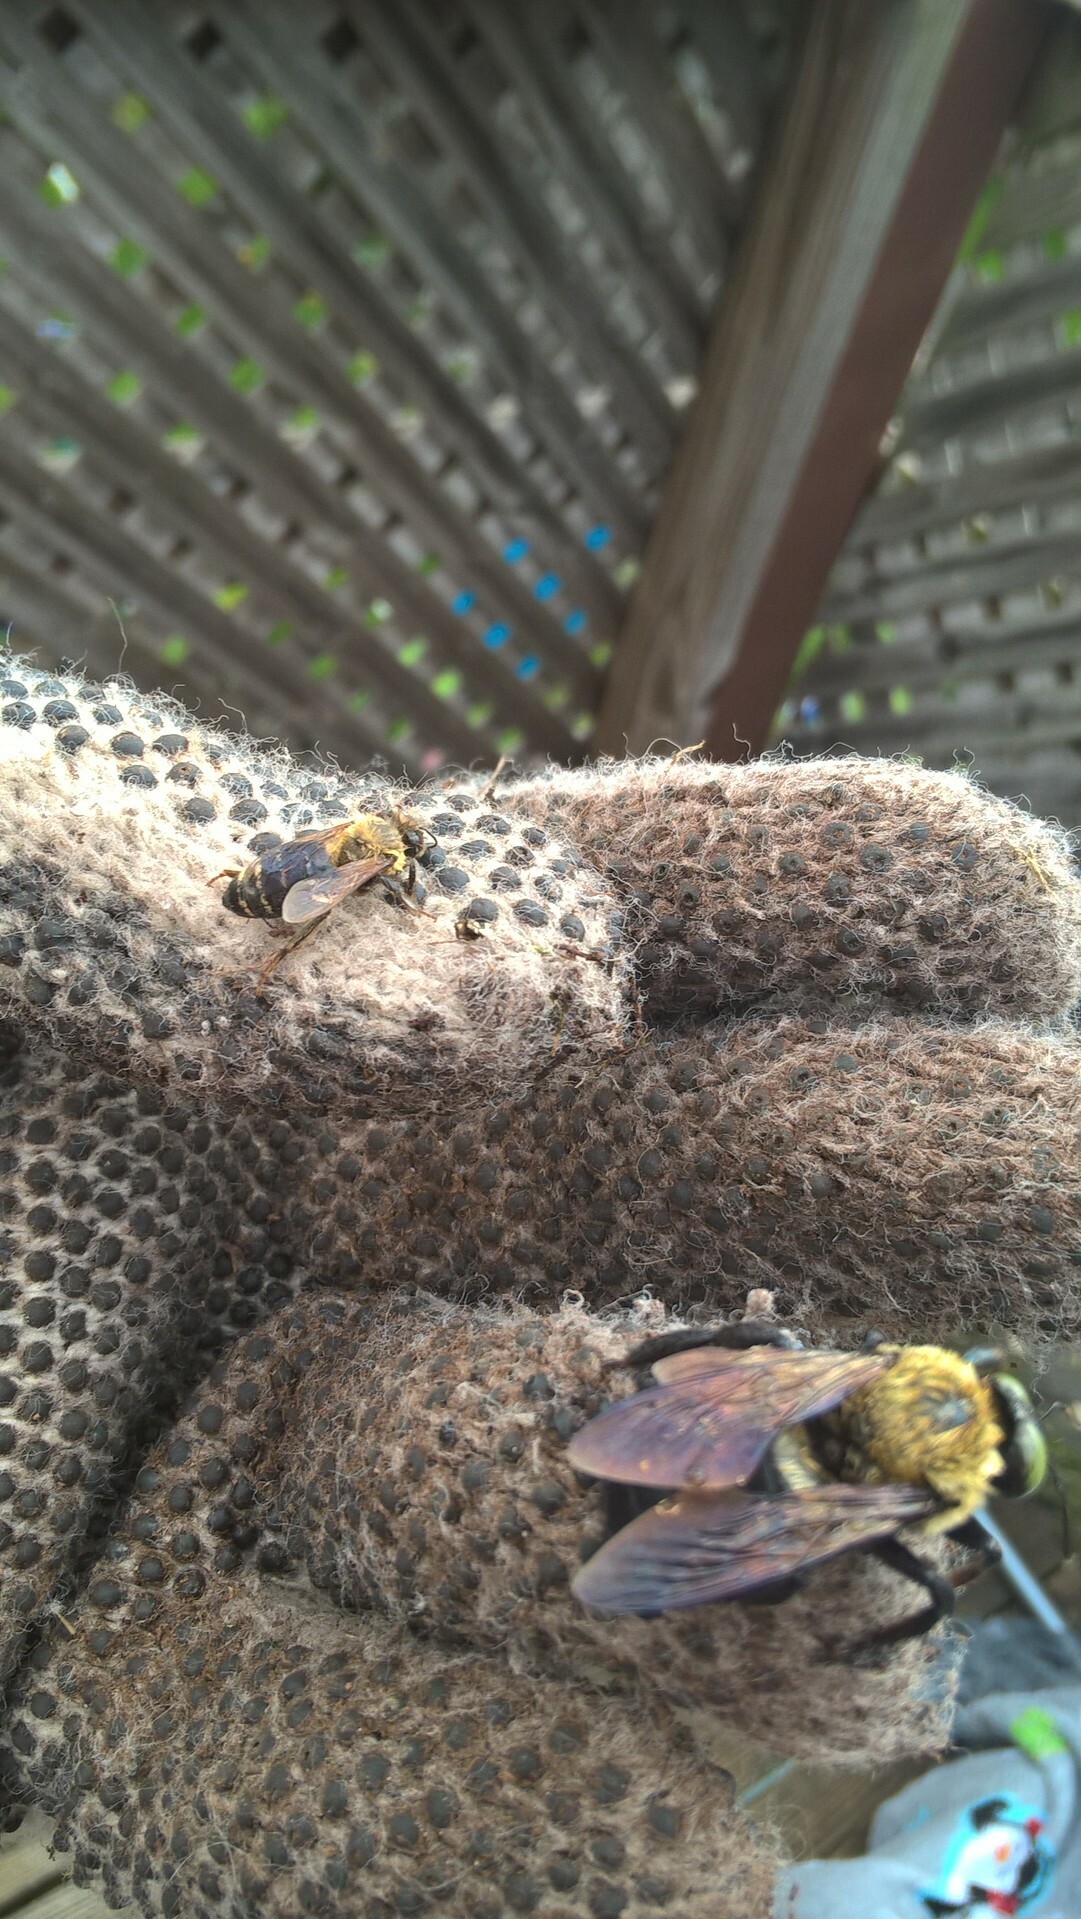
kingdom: Animalia
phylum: Arthropoda
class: Insecta
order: Hymenoptera
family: Apidae
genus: Xylocopa
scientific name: Xylocopa virginica
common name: Carpenter bee
